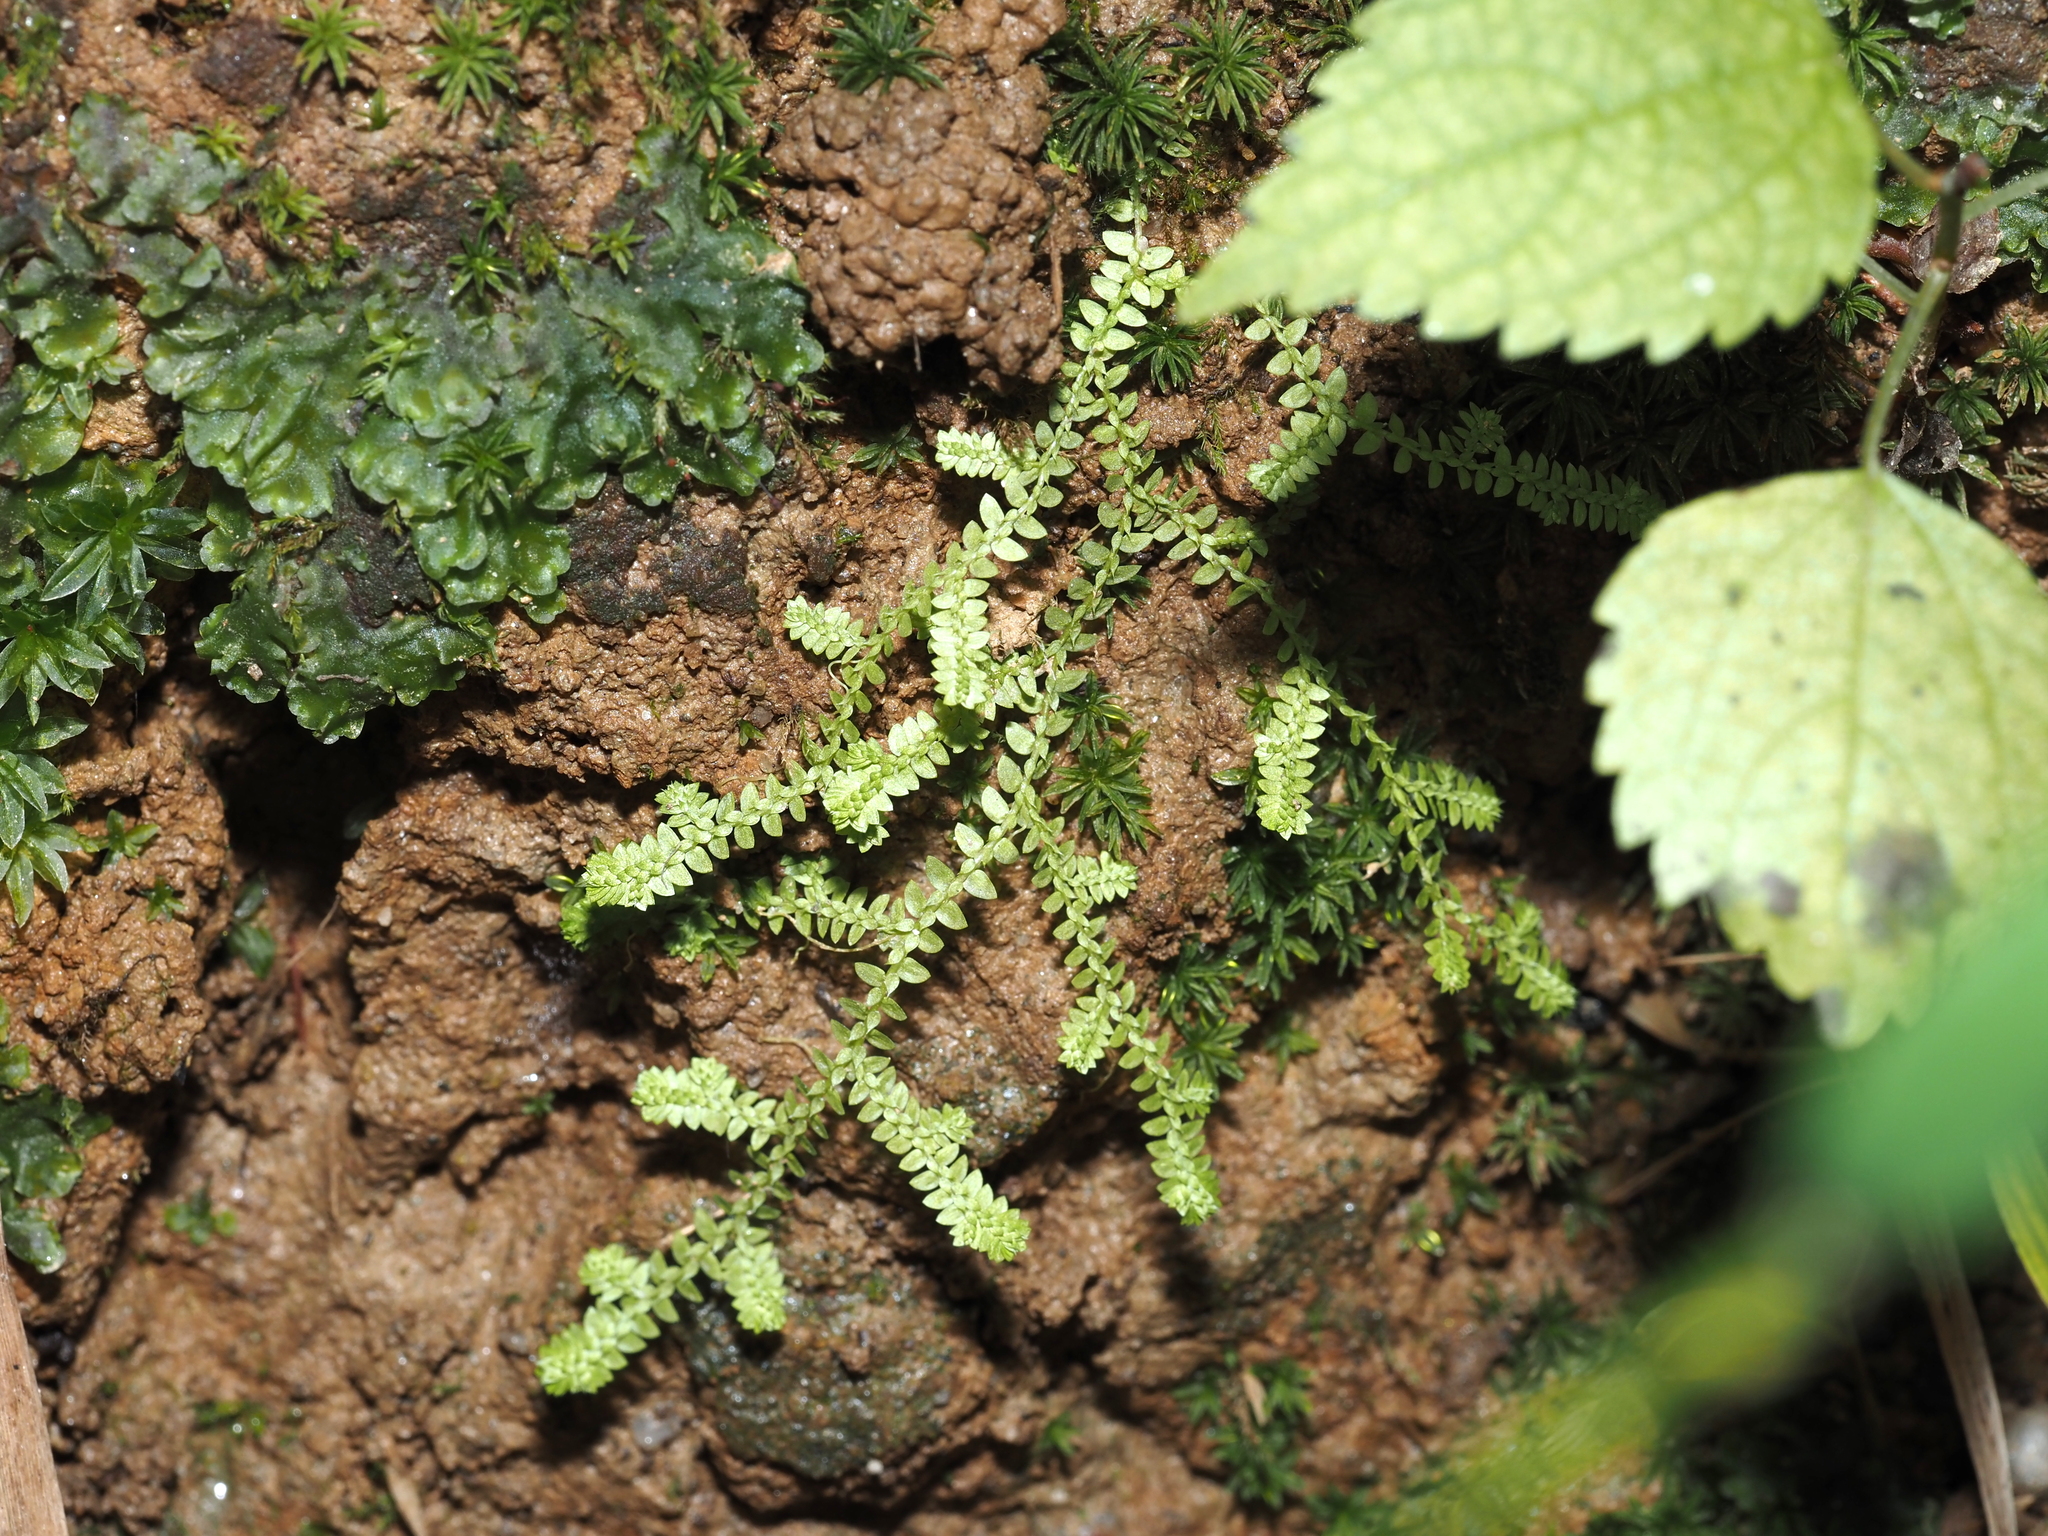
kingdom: Plantae
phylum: Tracheophyta
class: Lycopodiopsida
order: Selaginellales
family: Selaginellaceae
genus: Selaginella
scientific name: Selaginella apoda
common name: Creeping spikemoss
